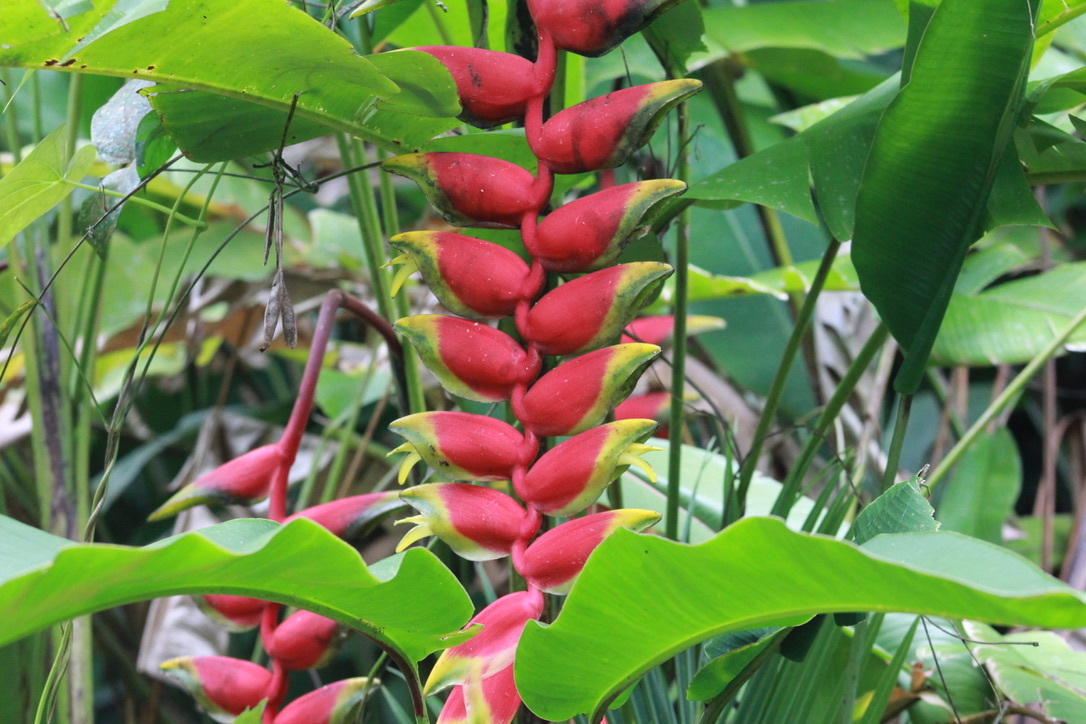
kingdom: Plantae
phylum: Tracheophyta
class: Liliopsida
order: Zingiberales
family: Heliconiaceae
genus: Heliconia
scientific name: Heliconia rostrata
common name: False bird of paradise
